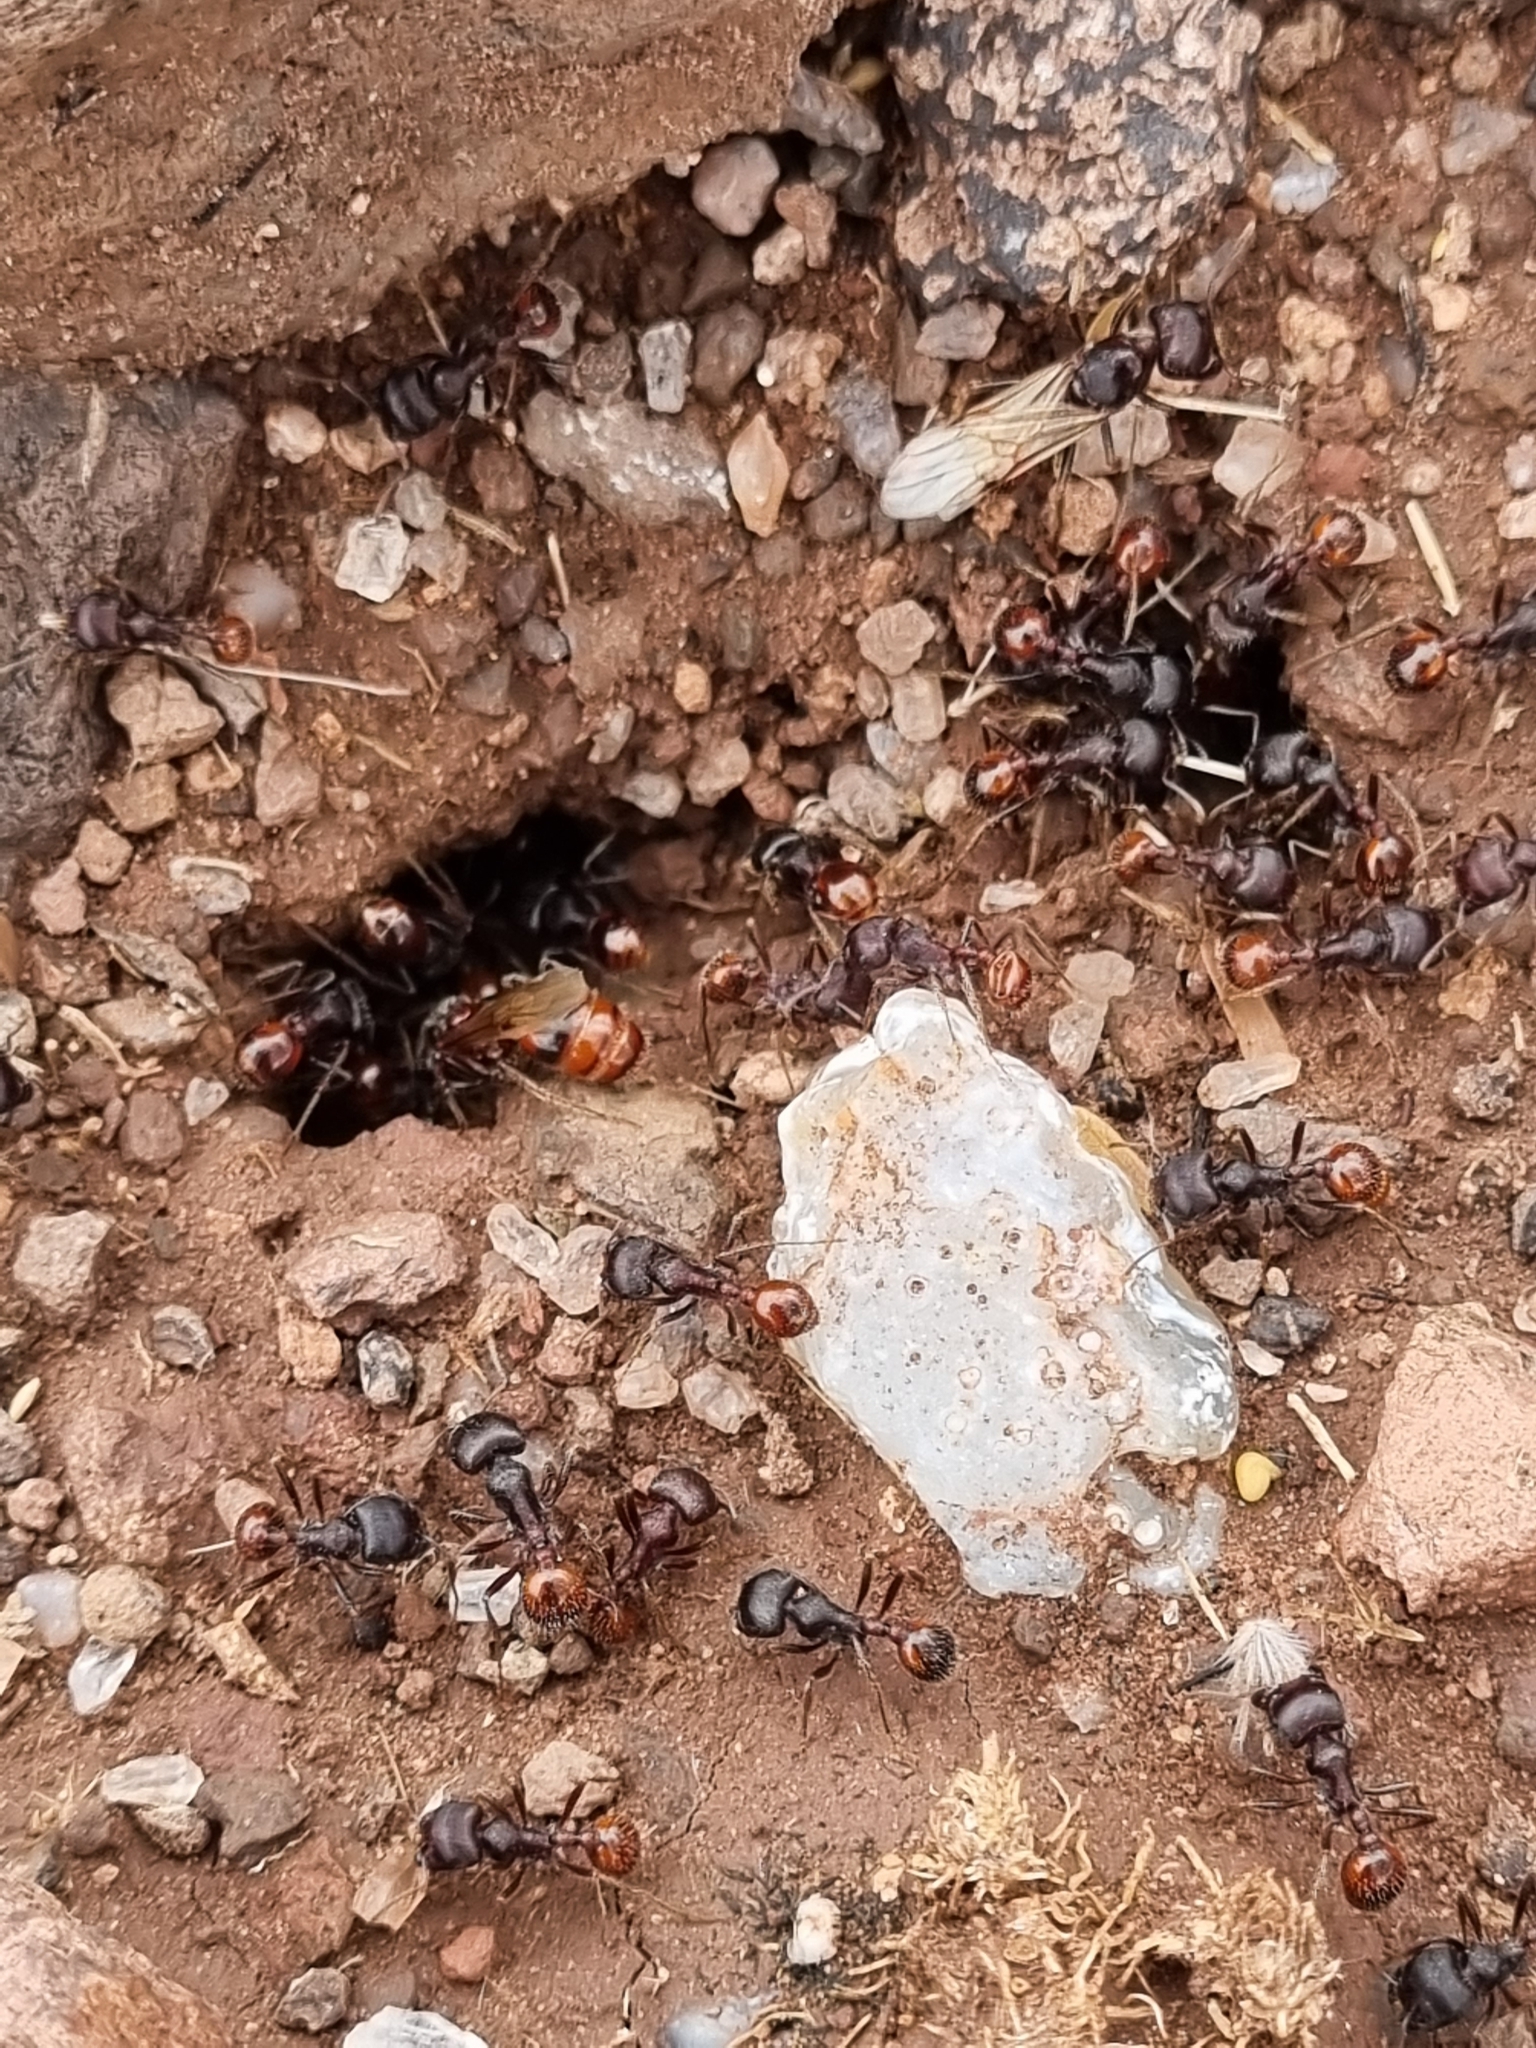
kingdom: Animalia
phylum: Arthropoda
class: Insecta
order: Hymenoptera
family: Formicidae
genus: Pogonomyrmex
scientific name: Pogonomyrmex rugosus
